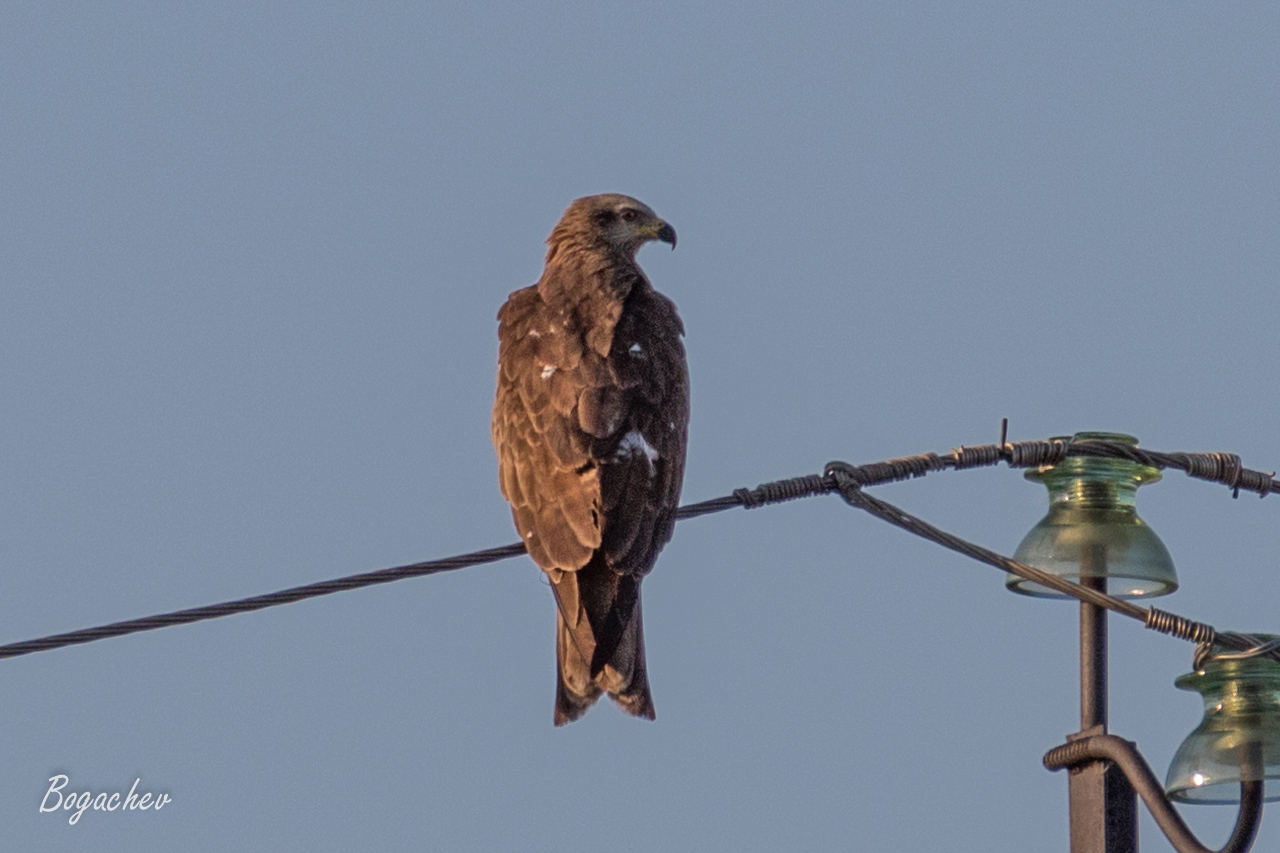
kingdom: Animalia
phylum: Chordata
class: Aves
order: Accipitriformes
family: Accipitridae
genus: Milvus
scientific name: Milvus migrans
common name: Black kite
